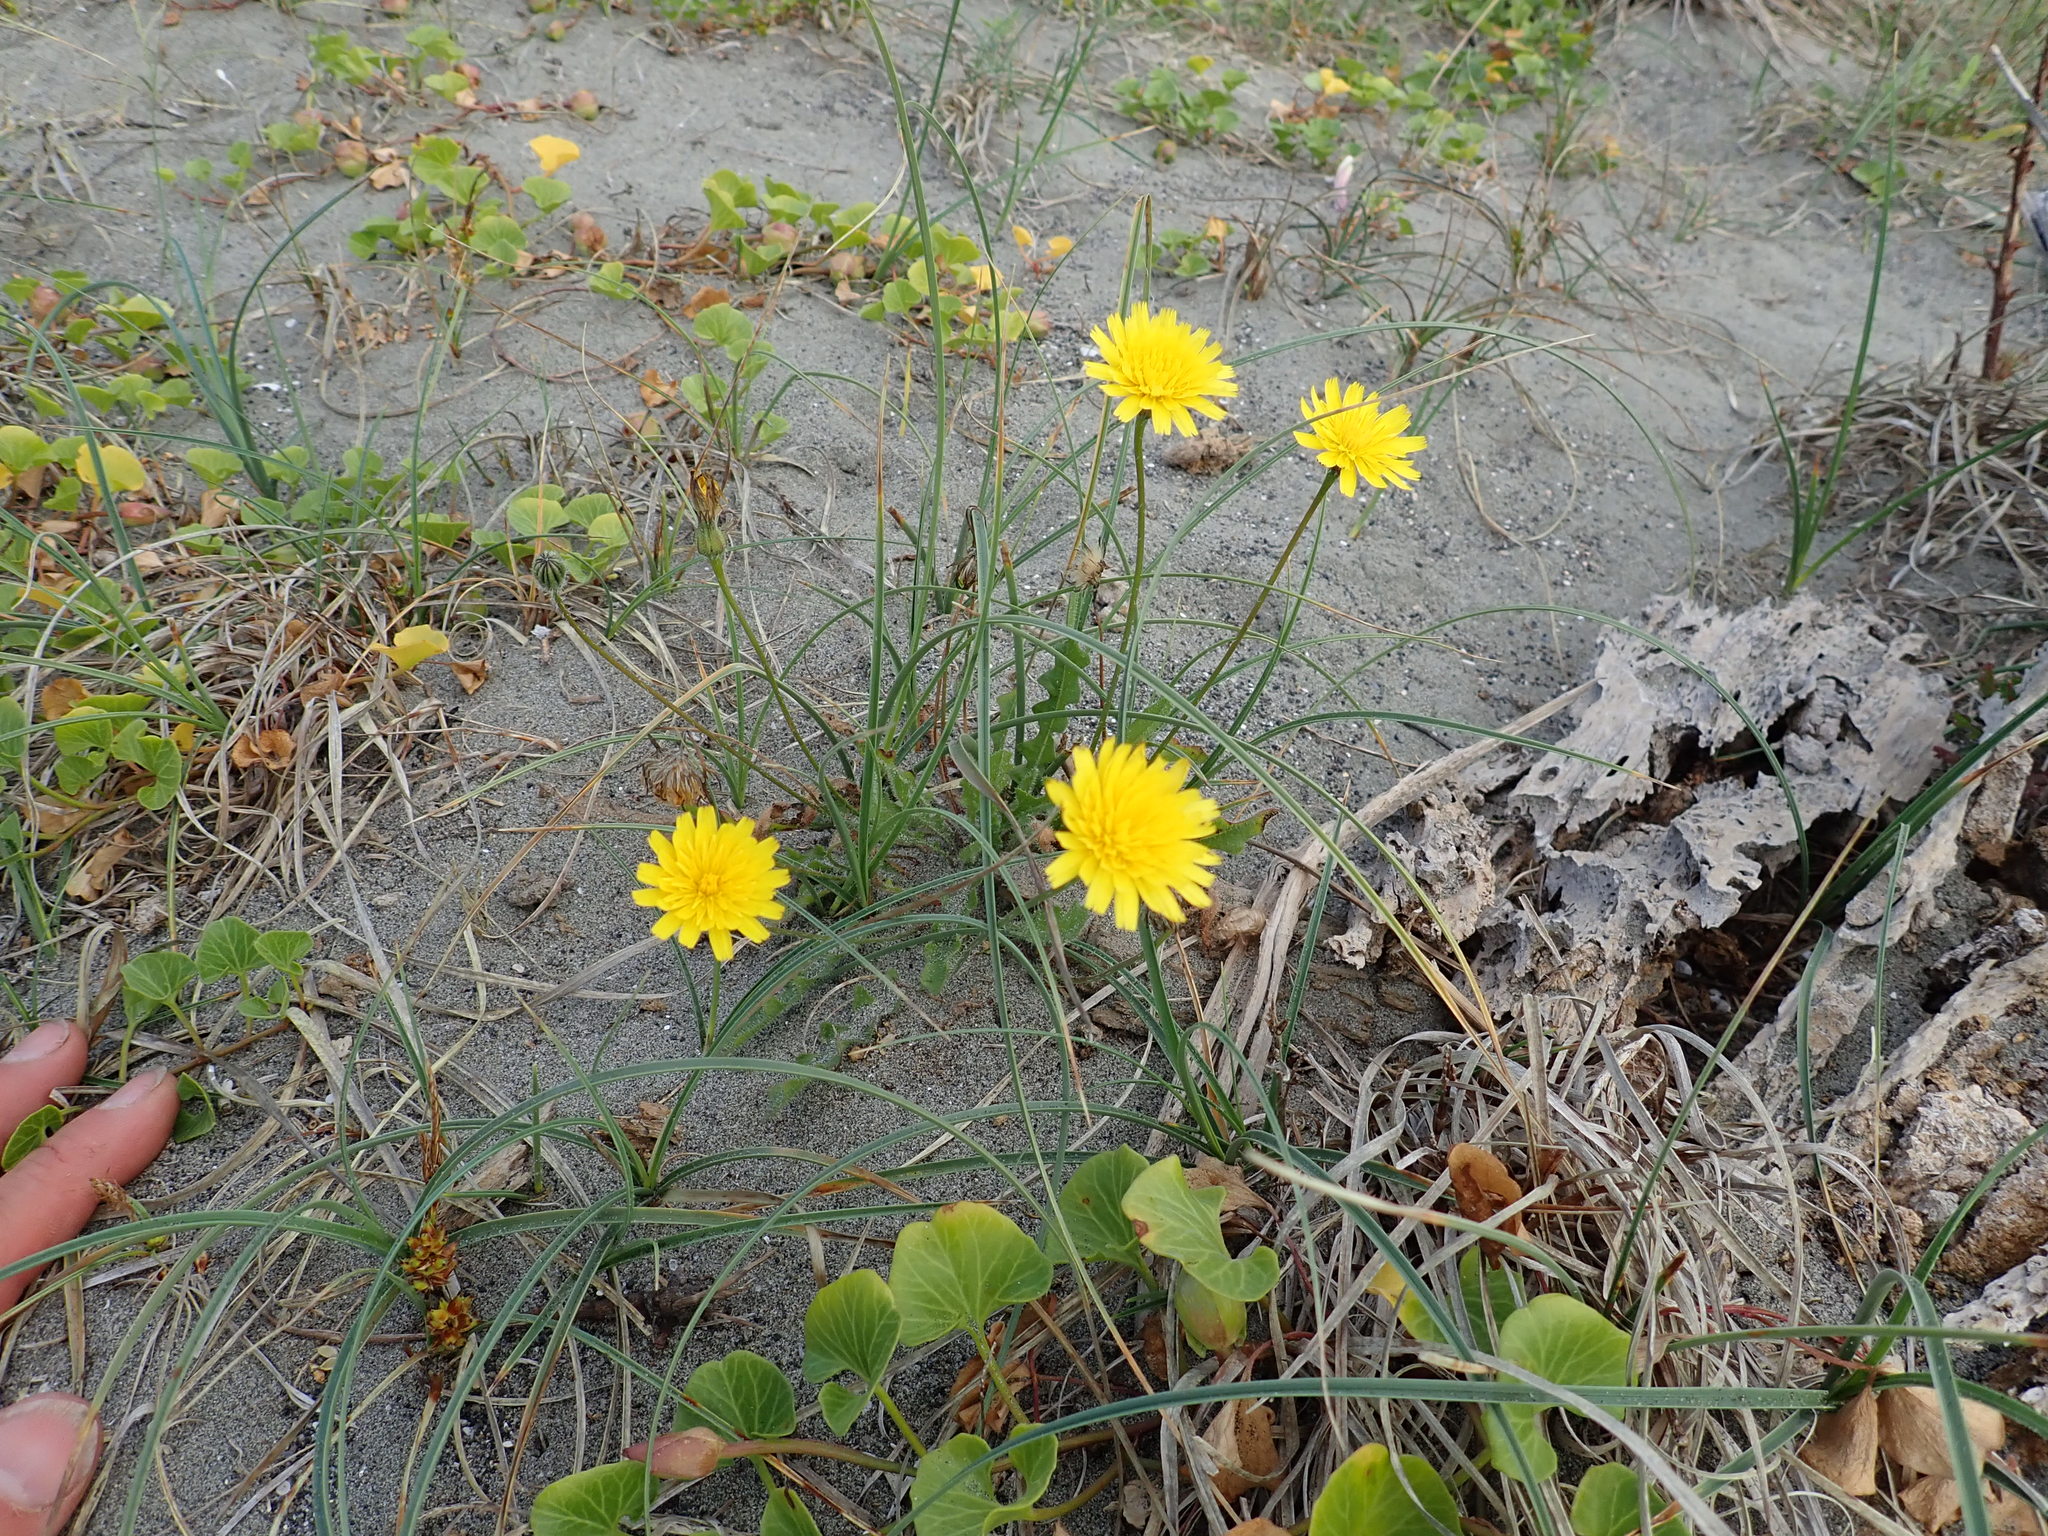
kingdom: Plantae
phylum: Tracheophyta
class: Magnoliopsida
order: Asterales
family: Asteraceae
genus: Hypochaeris
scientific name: Hypochaeris radicata
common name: Flatweed
